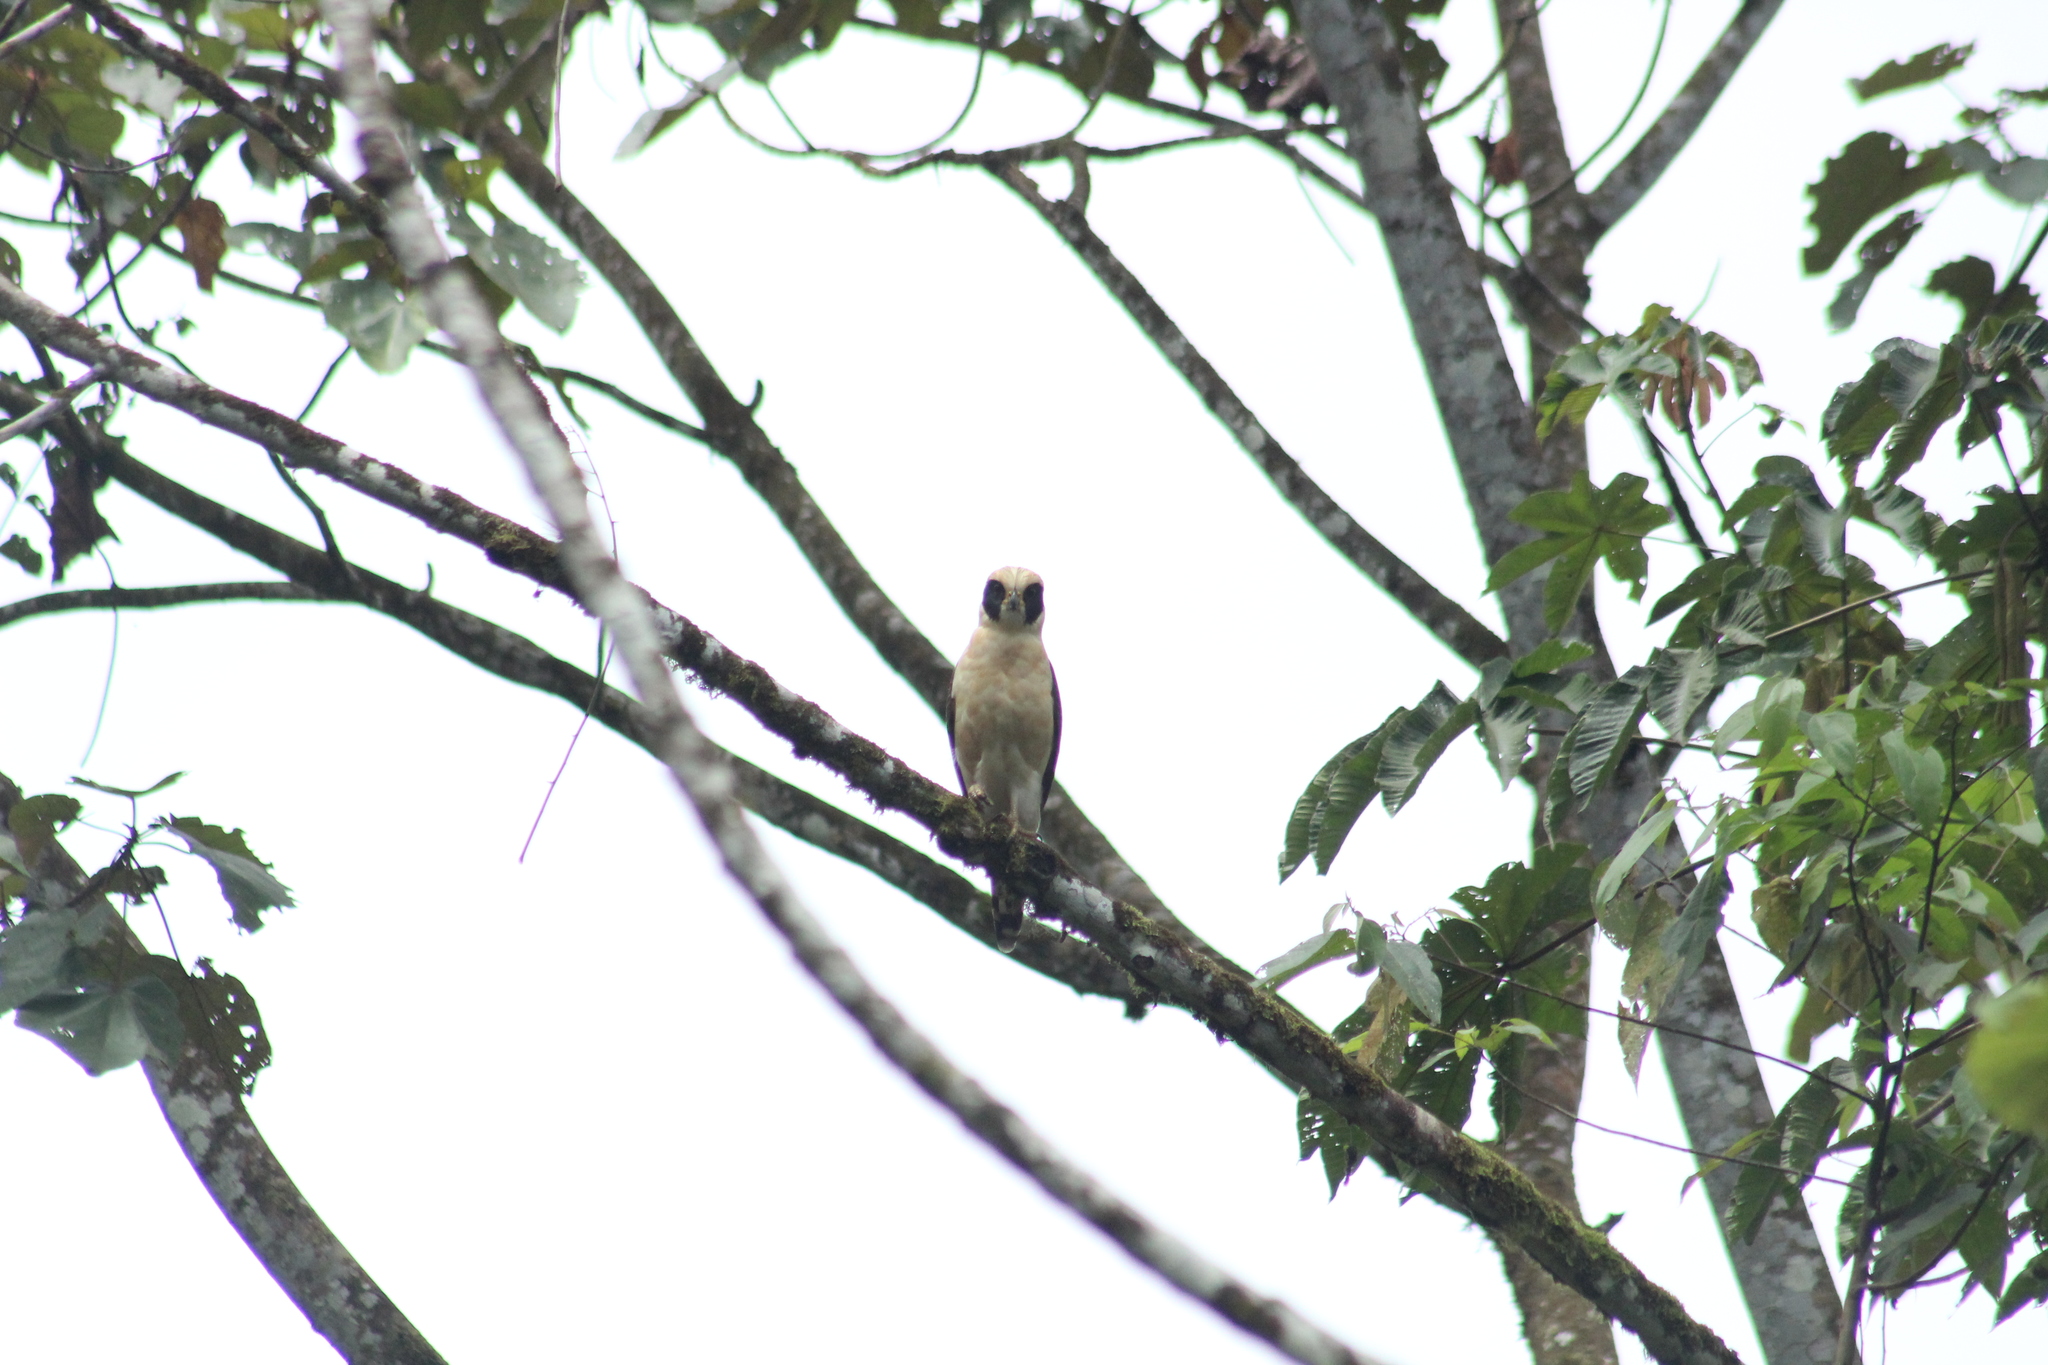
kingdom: Animalia
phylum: Chordata
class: Aves
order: Falconiformes
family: Falconidae
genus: Herpetotheres
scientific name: Herpetotheres cachinnans
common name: Laughing falcon
